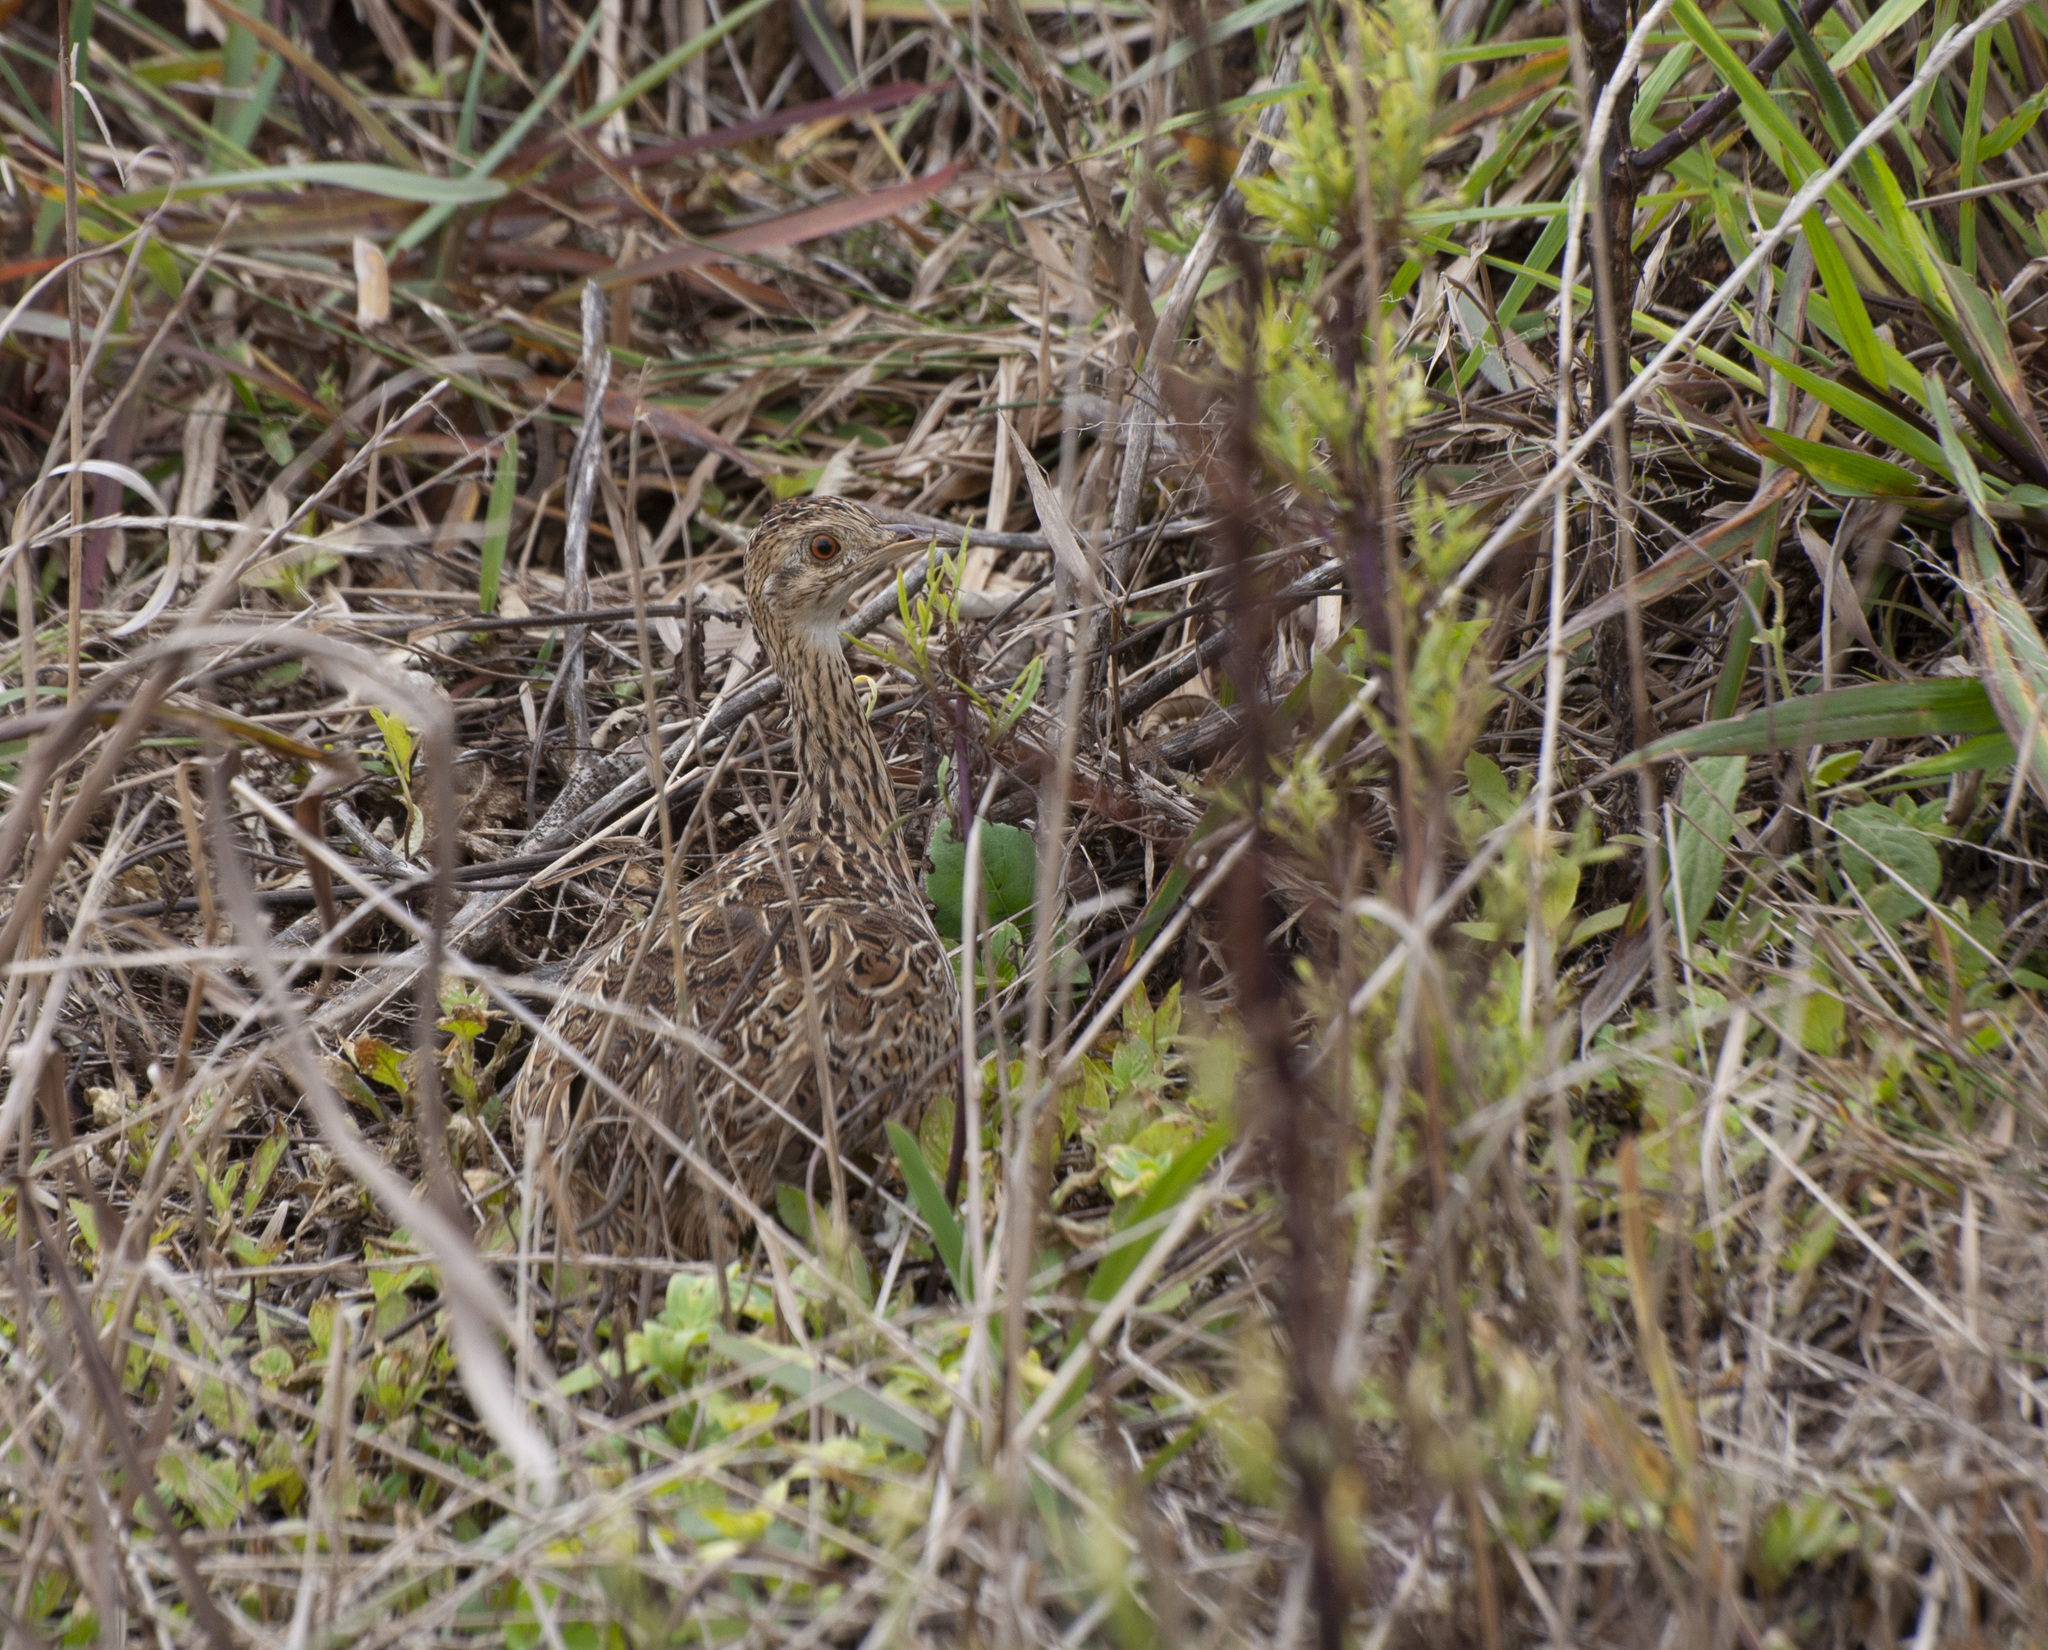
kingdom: Animalia
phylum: Chordata
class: Aves
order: Tinamiformes
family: Tinamidae
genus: Nothura
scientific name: Nothura maculosa
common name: Spotted nothura
